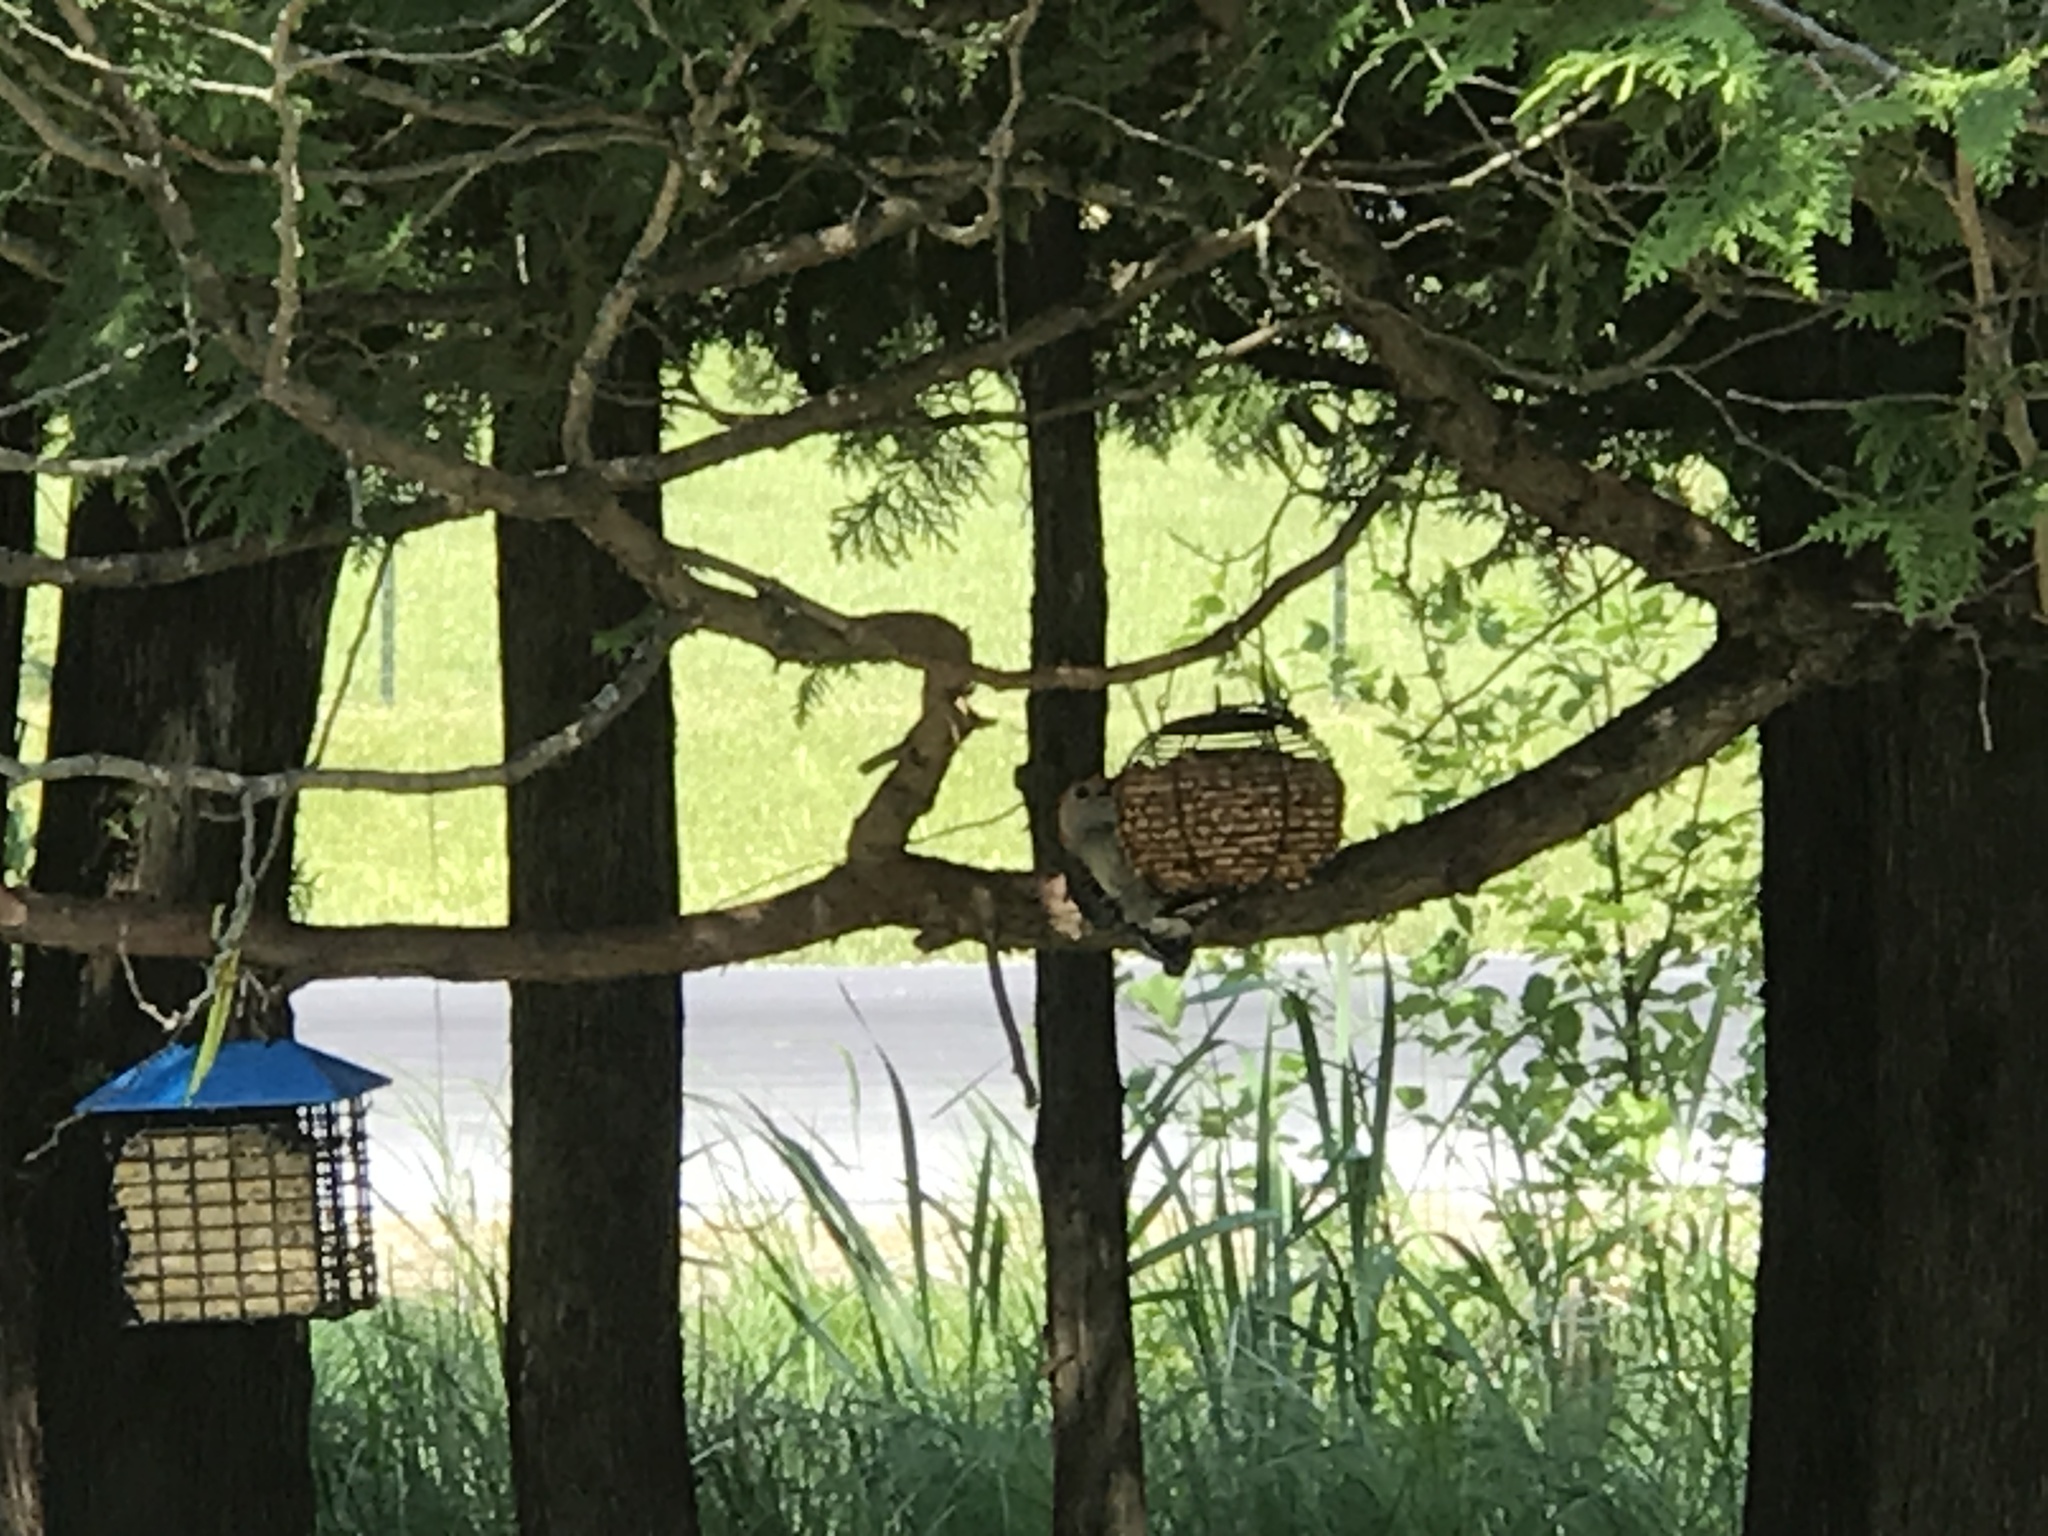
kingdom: Animalia
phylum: Chordata
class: Aves
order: Piciformes
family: Picidae
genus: Melanerpes
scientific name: Melanerpes carolinus
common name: Red-bellied woodpecker
